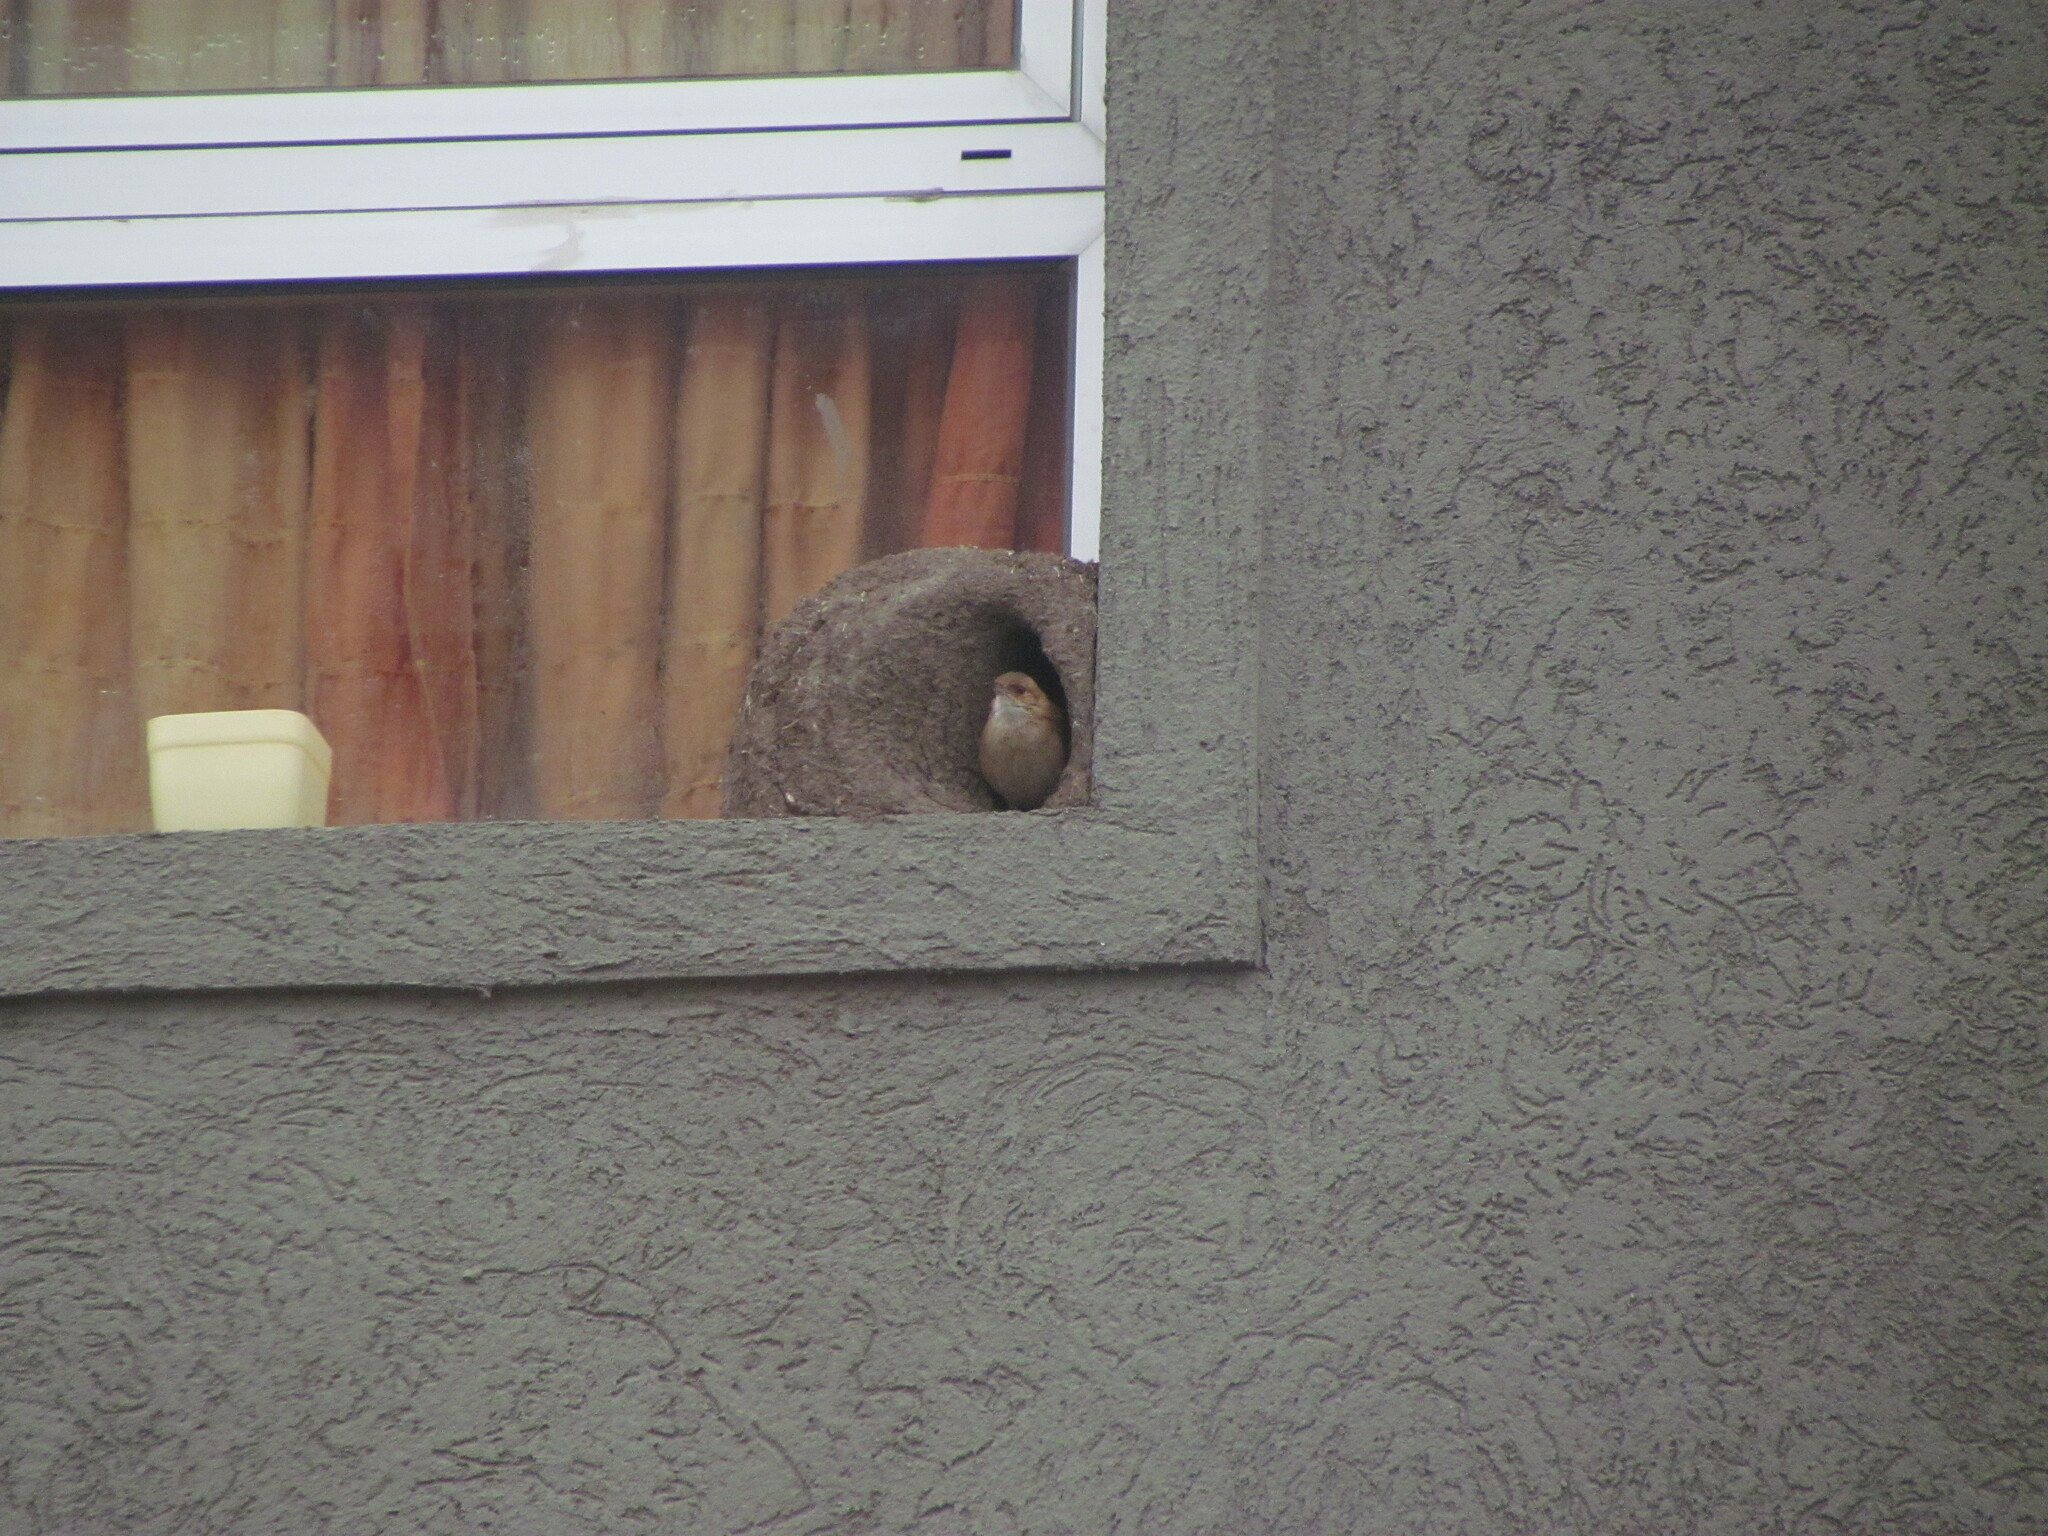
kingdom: Animalia
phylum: Chordata
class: Aves
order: Passeriformes
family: Furnariidae
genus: Furnarius
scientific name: Furnarius rufus
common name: Rufous hornero
